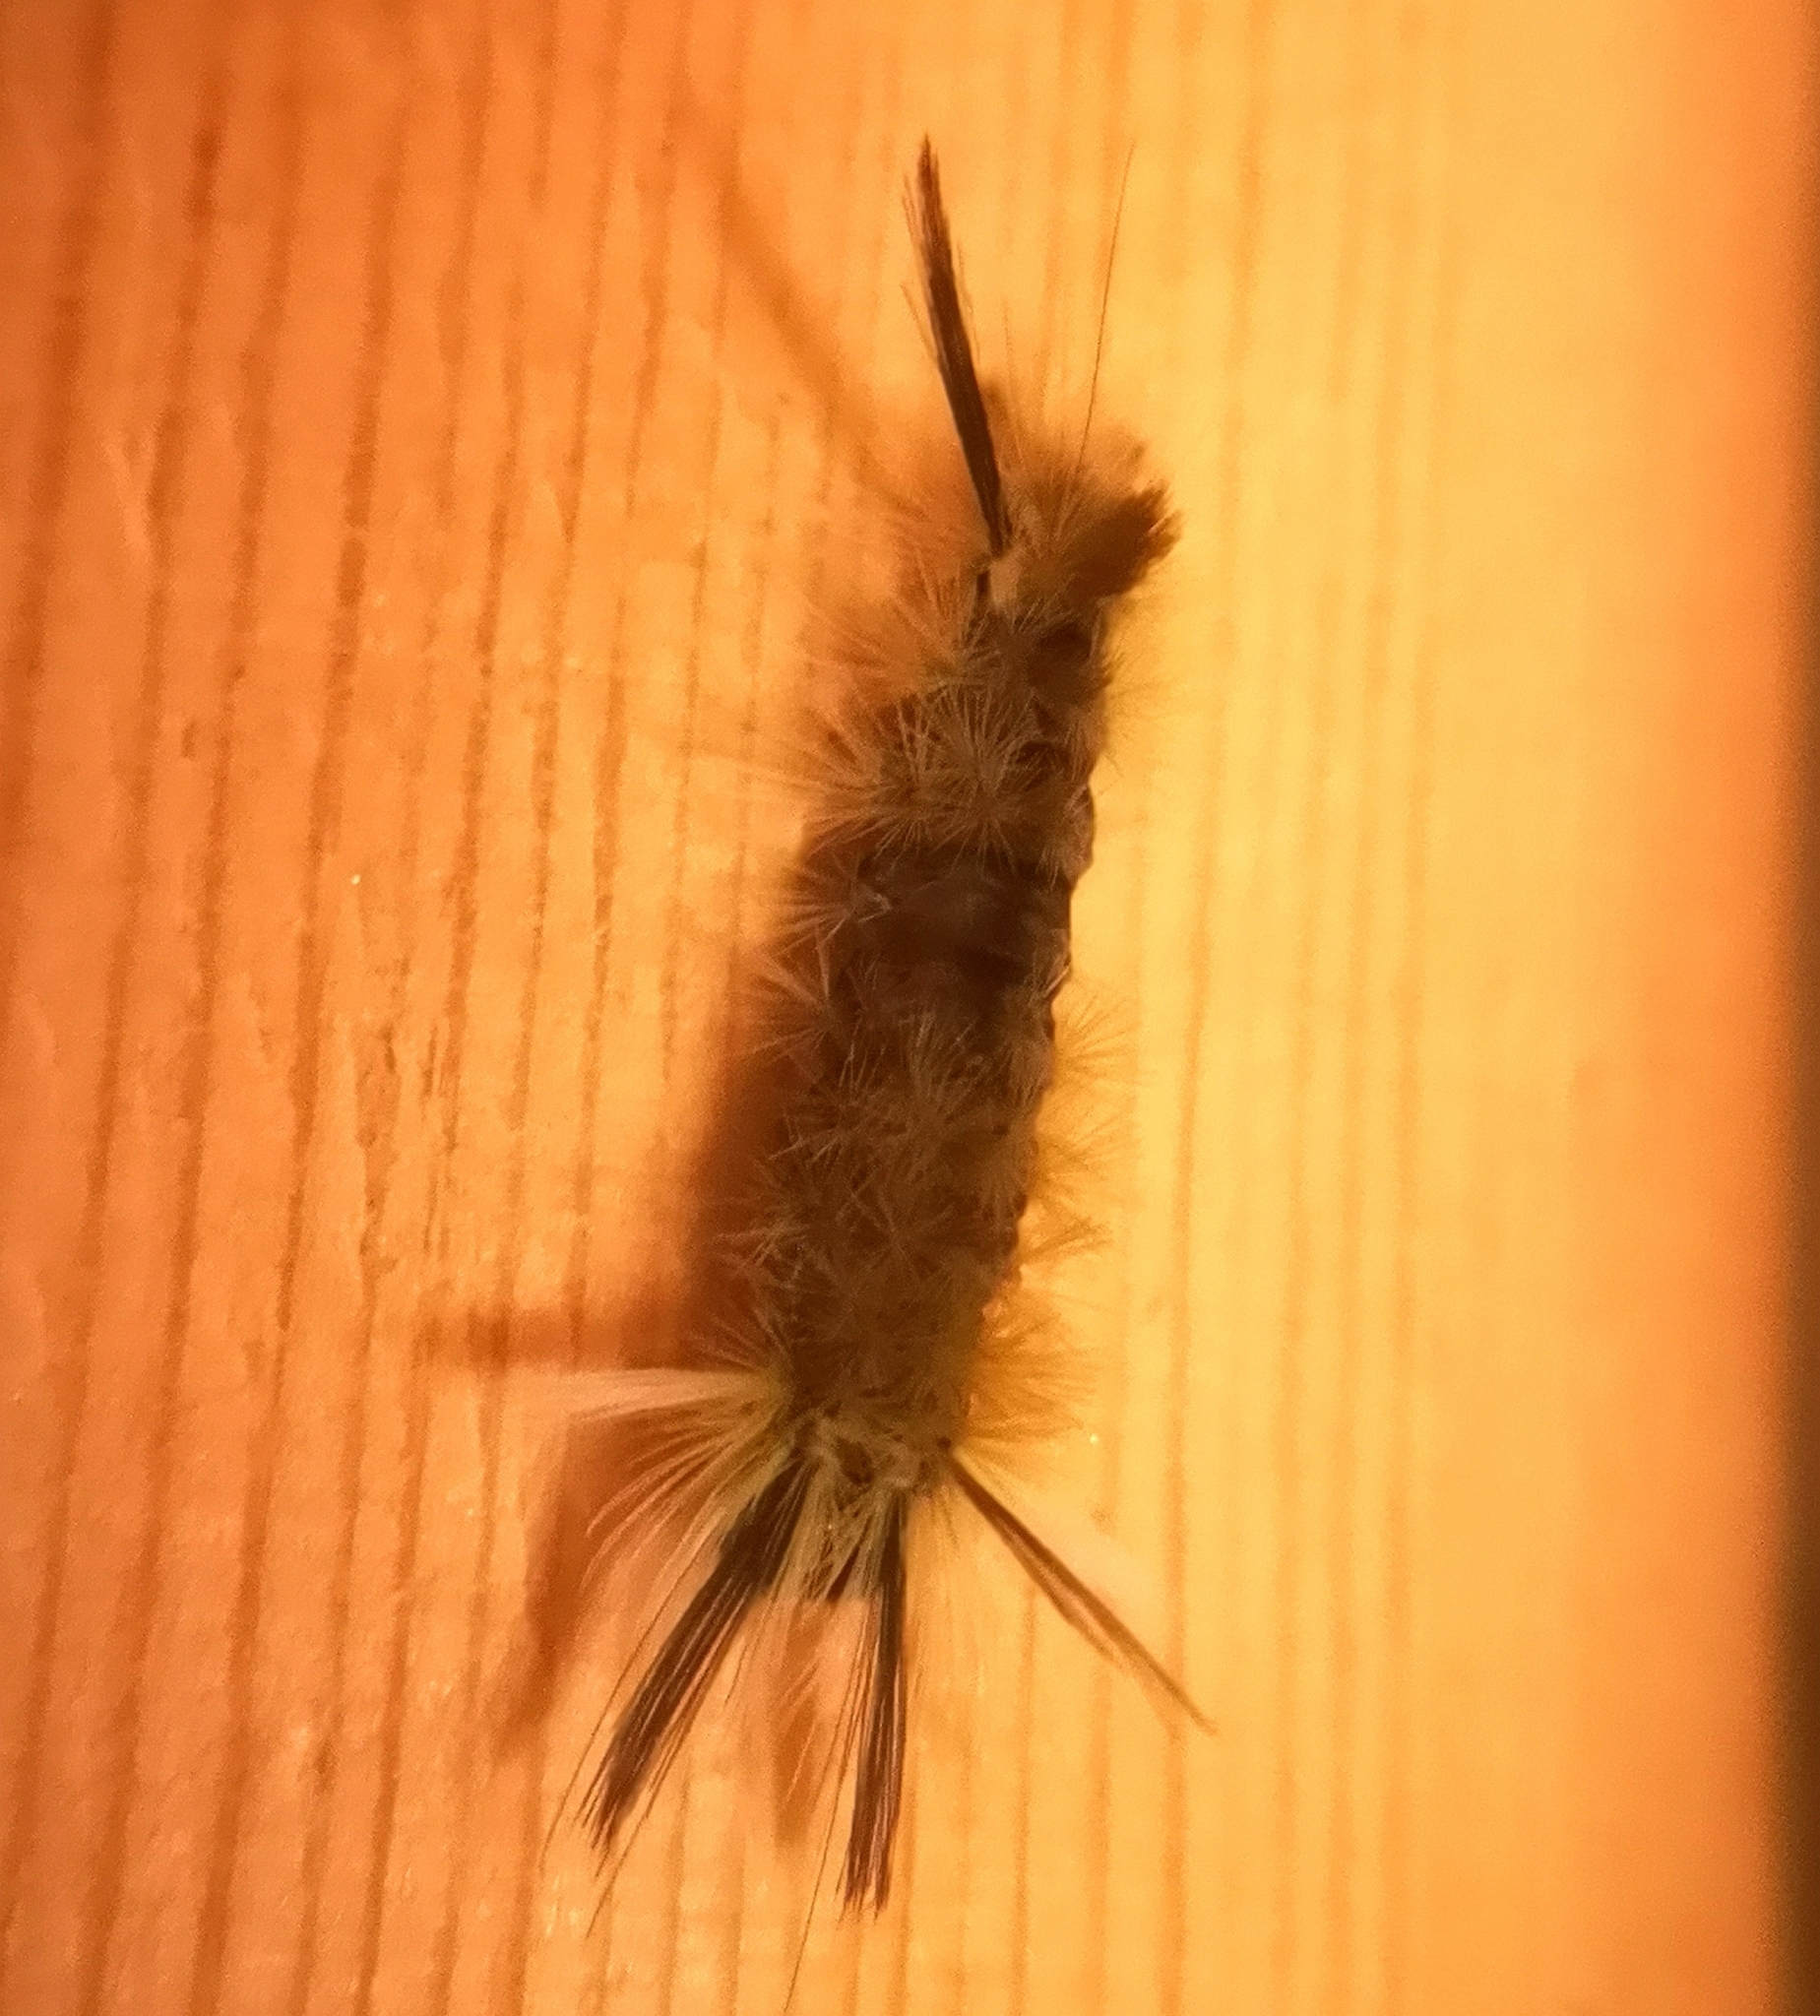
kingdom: Animalia
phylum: Arthropoda
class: Insecta
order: Lepidoptera
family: Erebidae
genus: Halysidota
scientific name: Halysidota tessellaris
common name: Banded tussock moth
